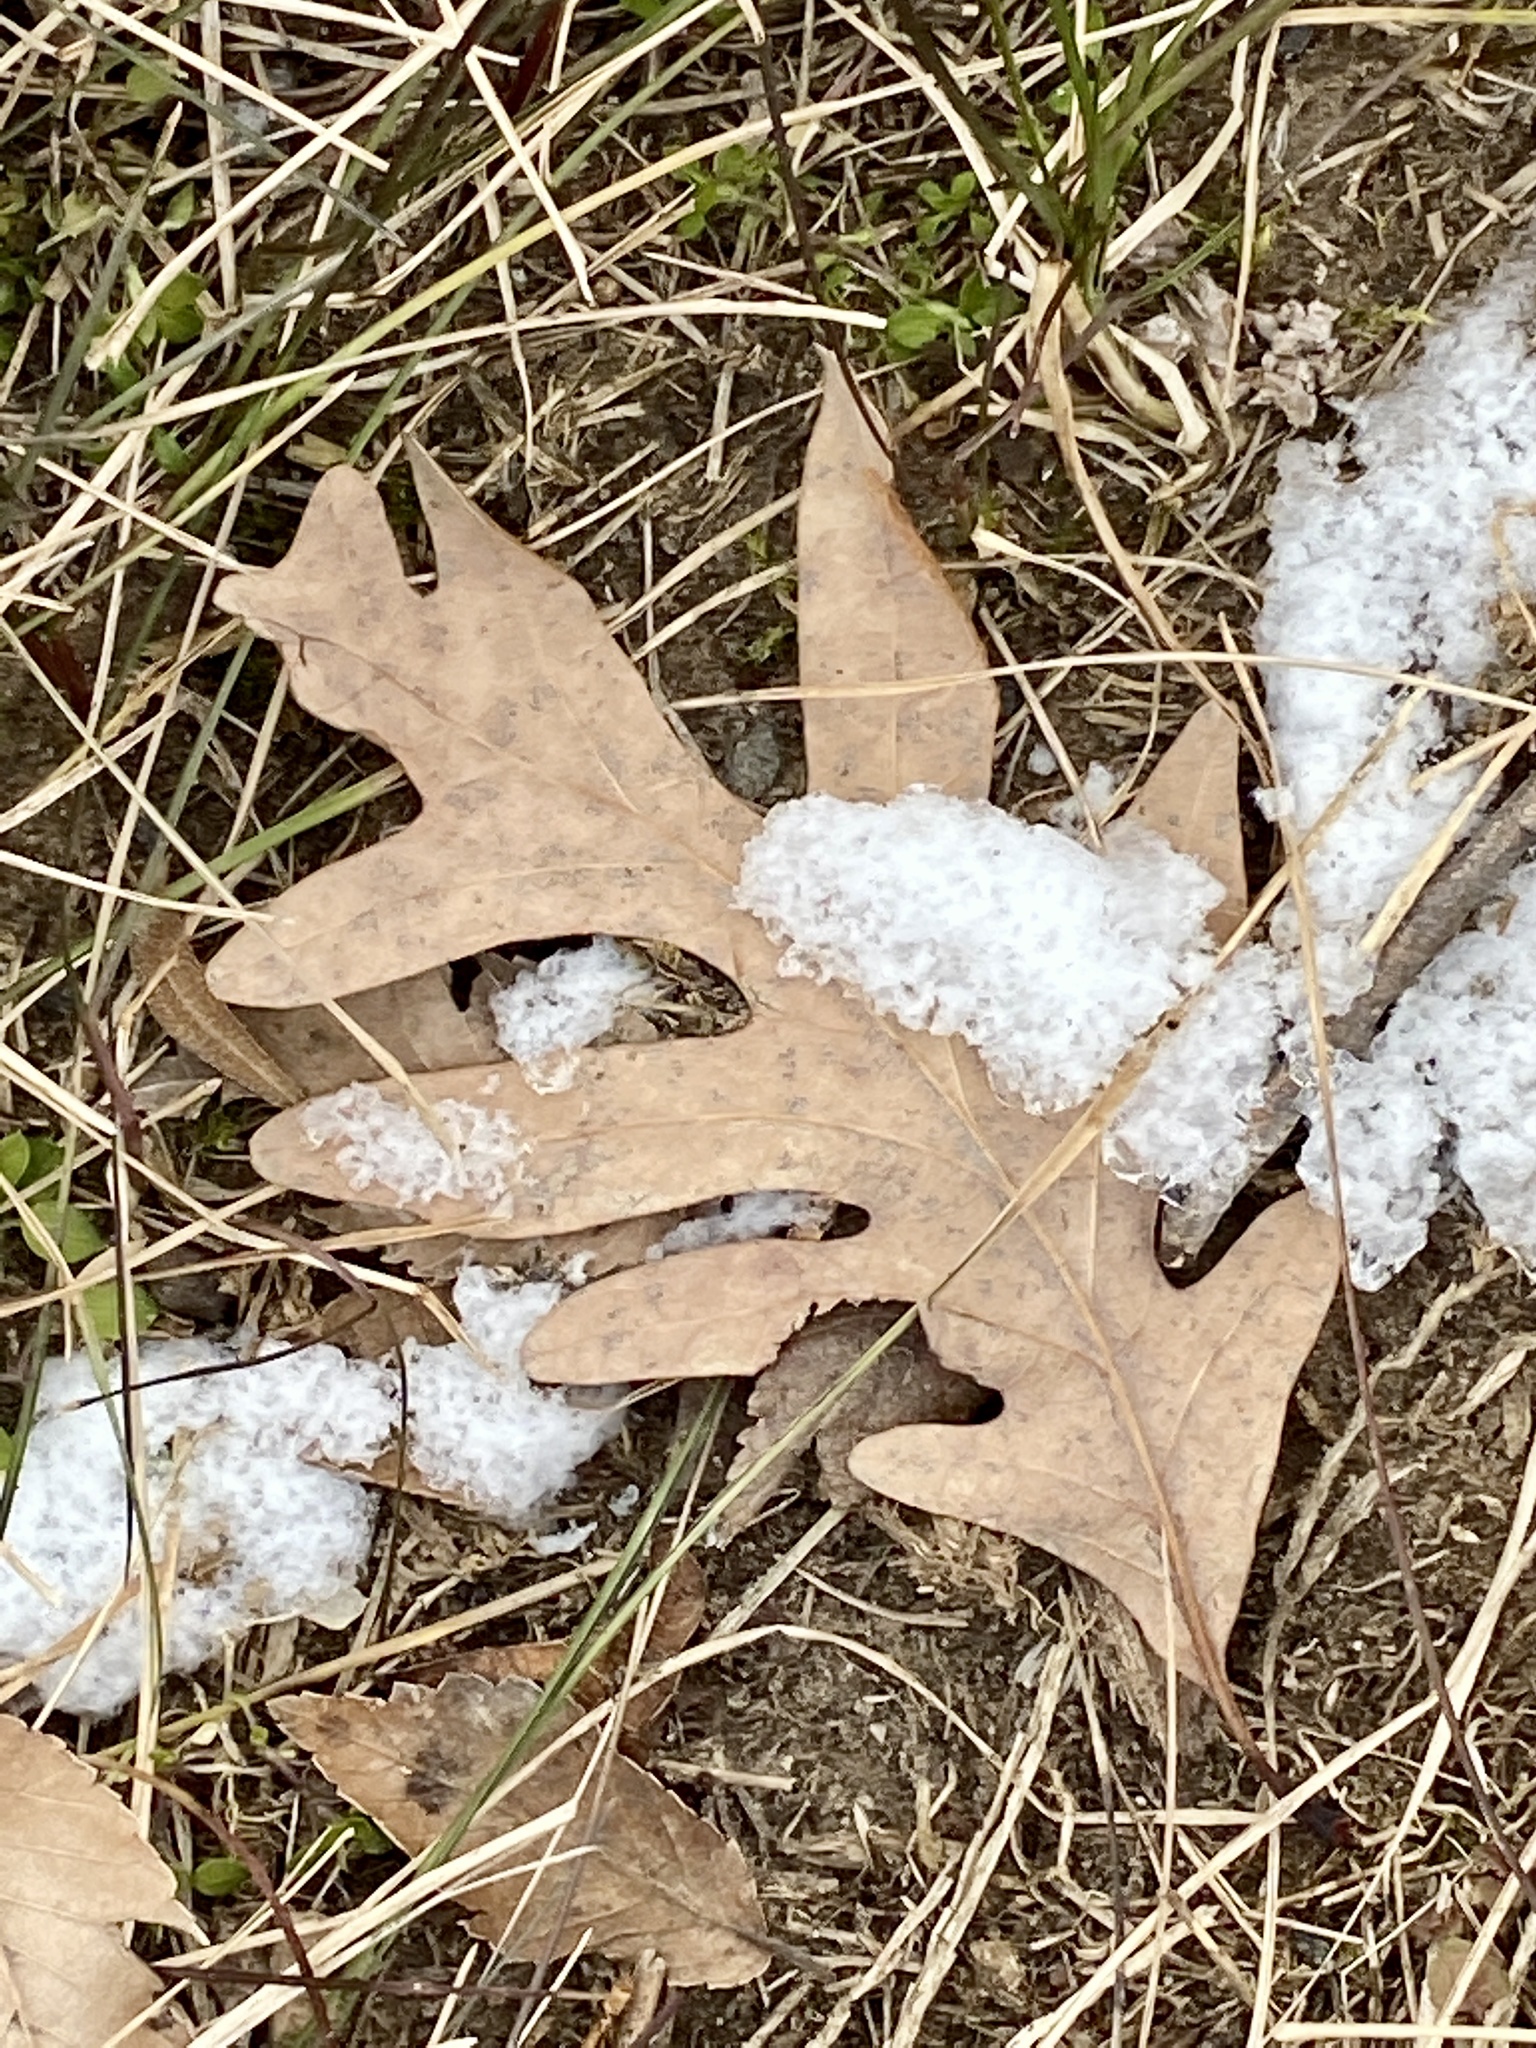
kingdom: Plantae
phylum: Tracheophyta
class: Magnoliopsida
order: Fagales
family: Fagaceae
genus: Quercus
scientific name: Quercus alba
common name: White oak
